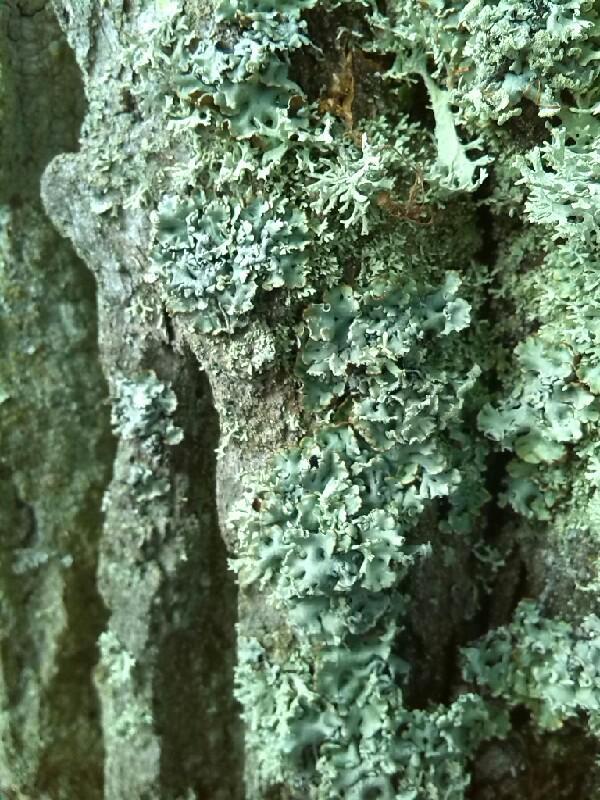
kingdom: Fungi
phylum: Ascomycota
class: Lecanoromycetes
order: Lecanorales
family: Parmeliaceae
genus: Hypogymnia
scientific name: Hypogymnia physodes
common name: Dark crottle
